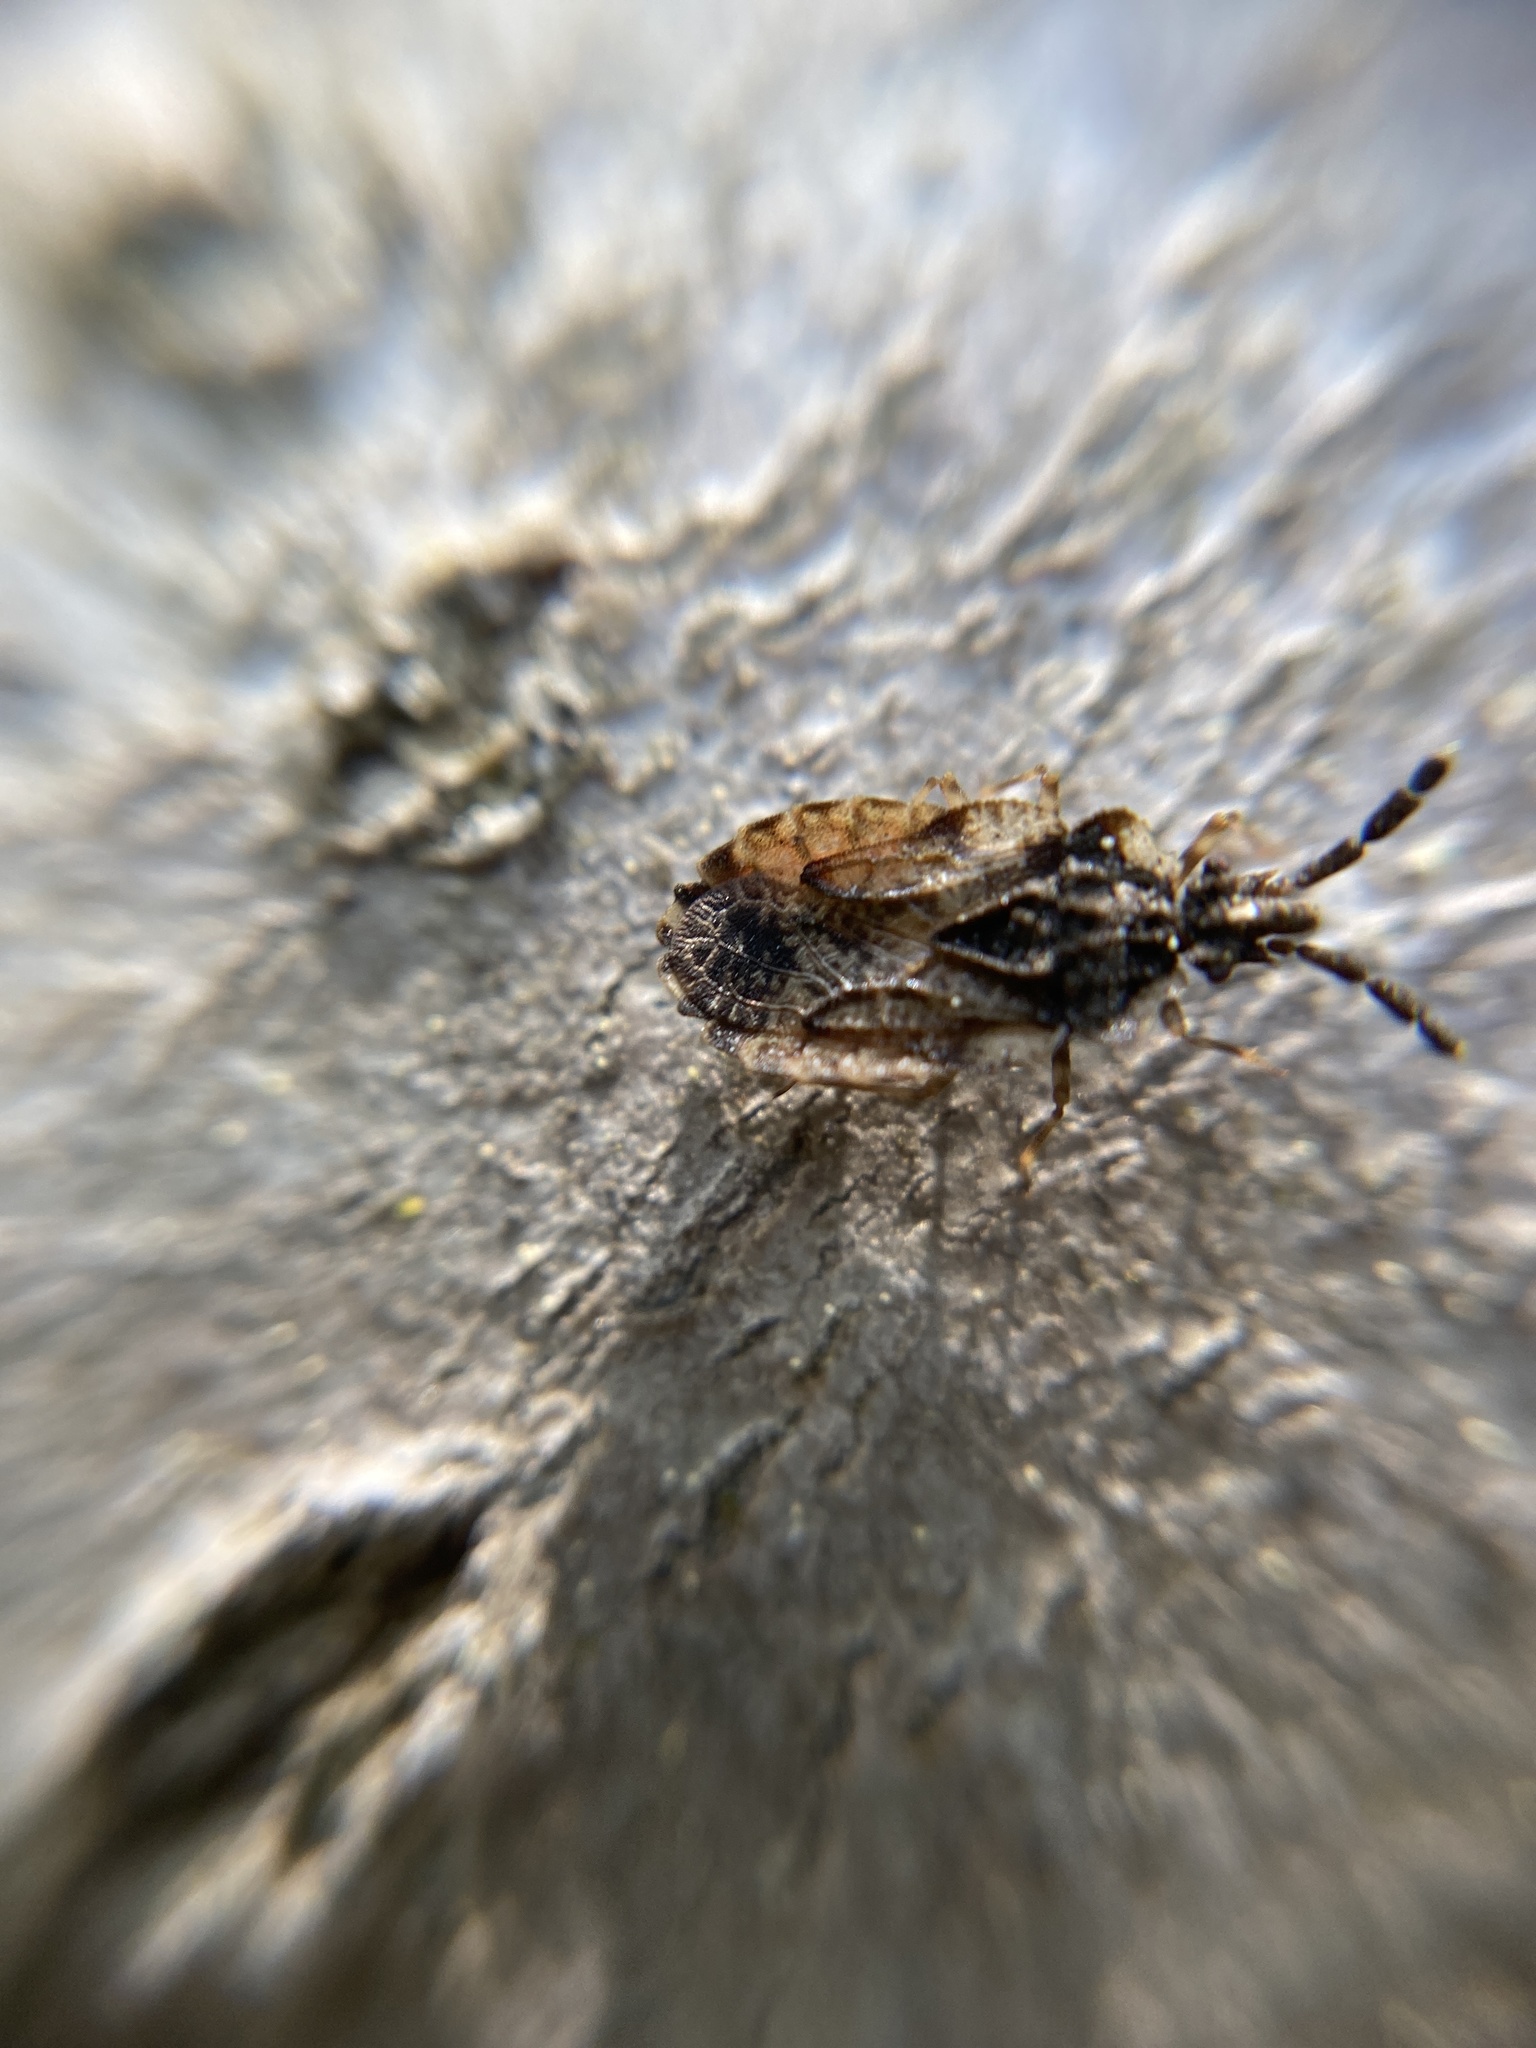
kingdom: Animalia
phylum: Arthropoda
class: Insecta
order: Hemiptera
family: Aradidae
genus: Aradus
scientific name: Aradus depressus
